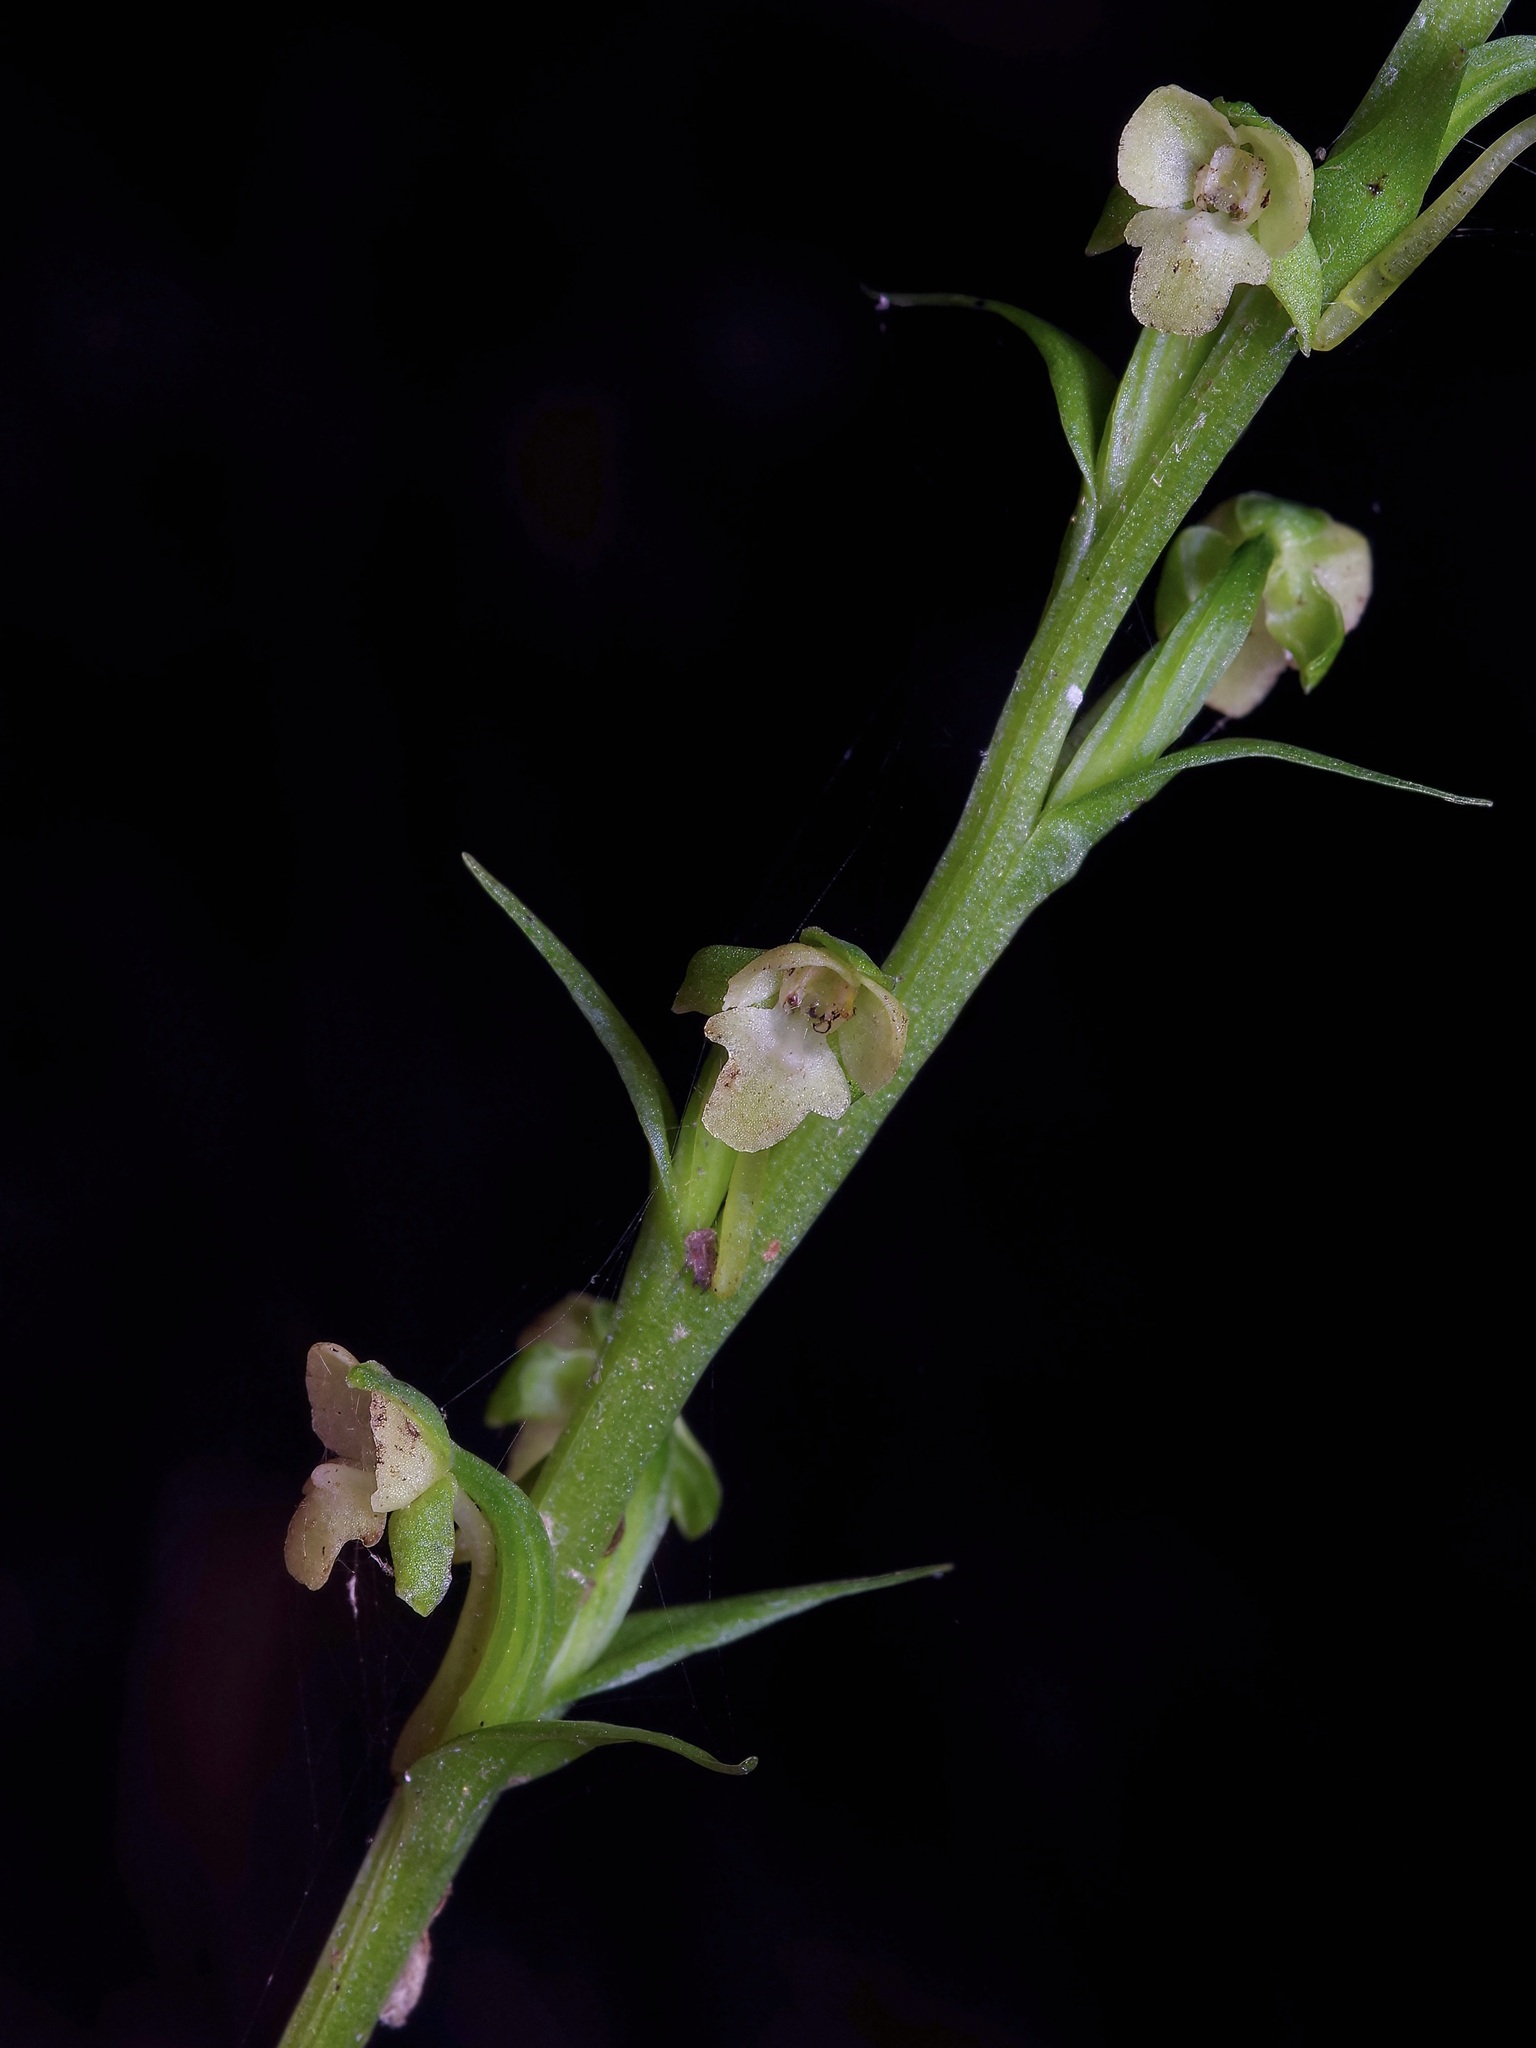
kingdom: Plantae
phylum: Tracheophyta
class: Liliopsida
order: Asparagales
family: Orchidaceae
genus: Platanthera
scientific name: Platanthera flava
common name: Gypsy-spikes
